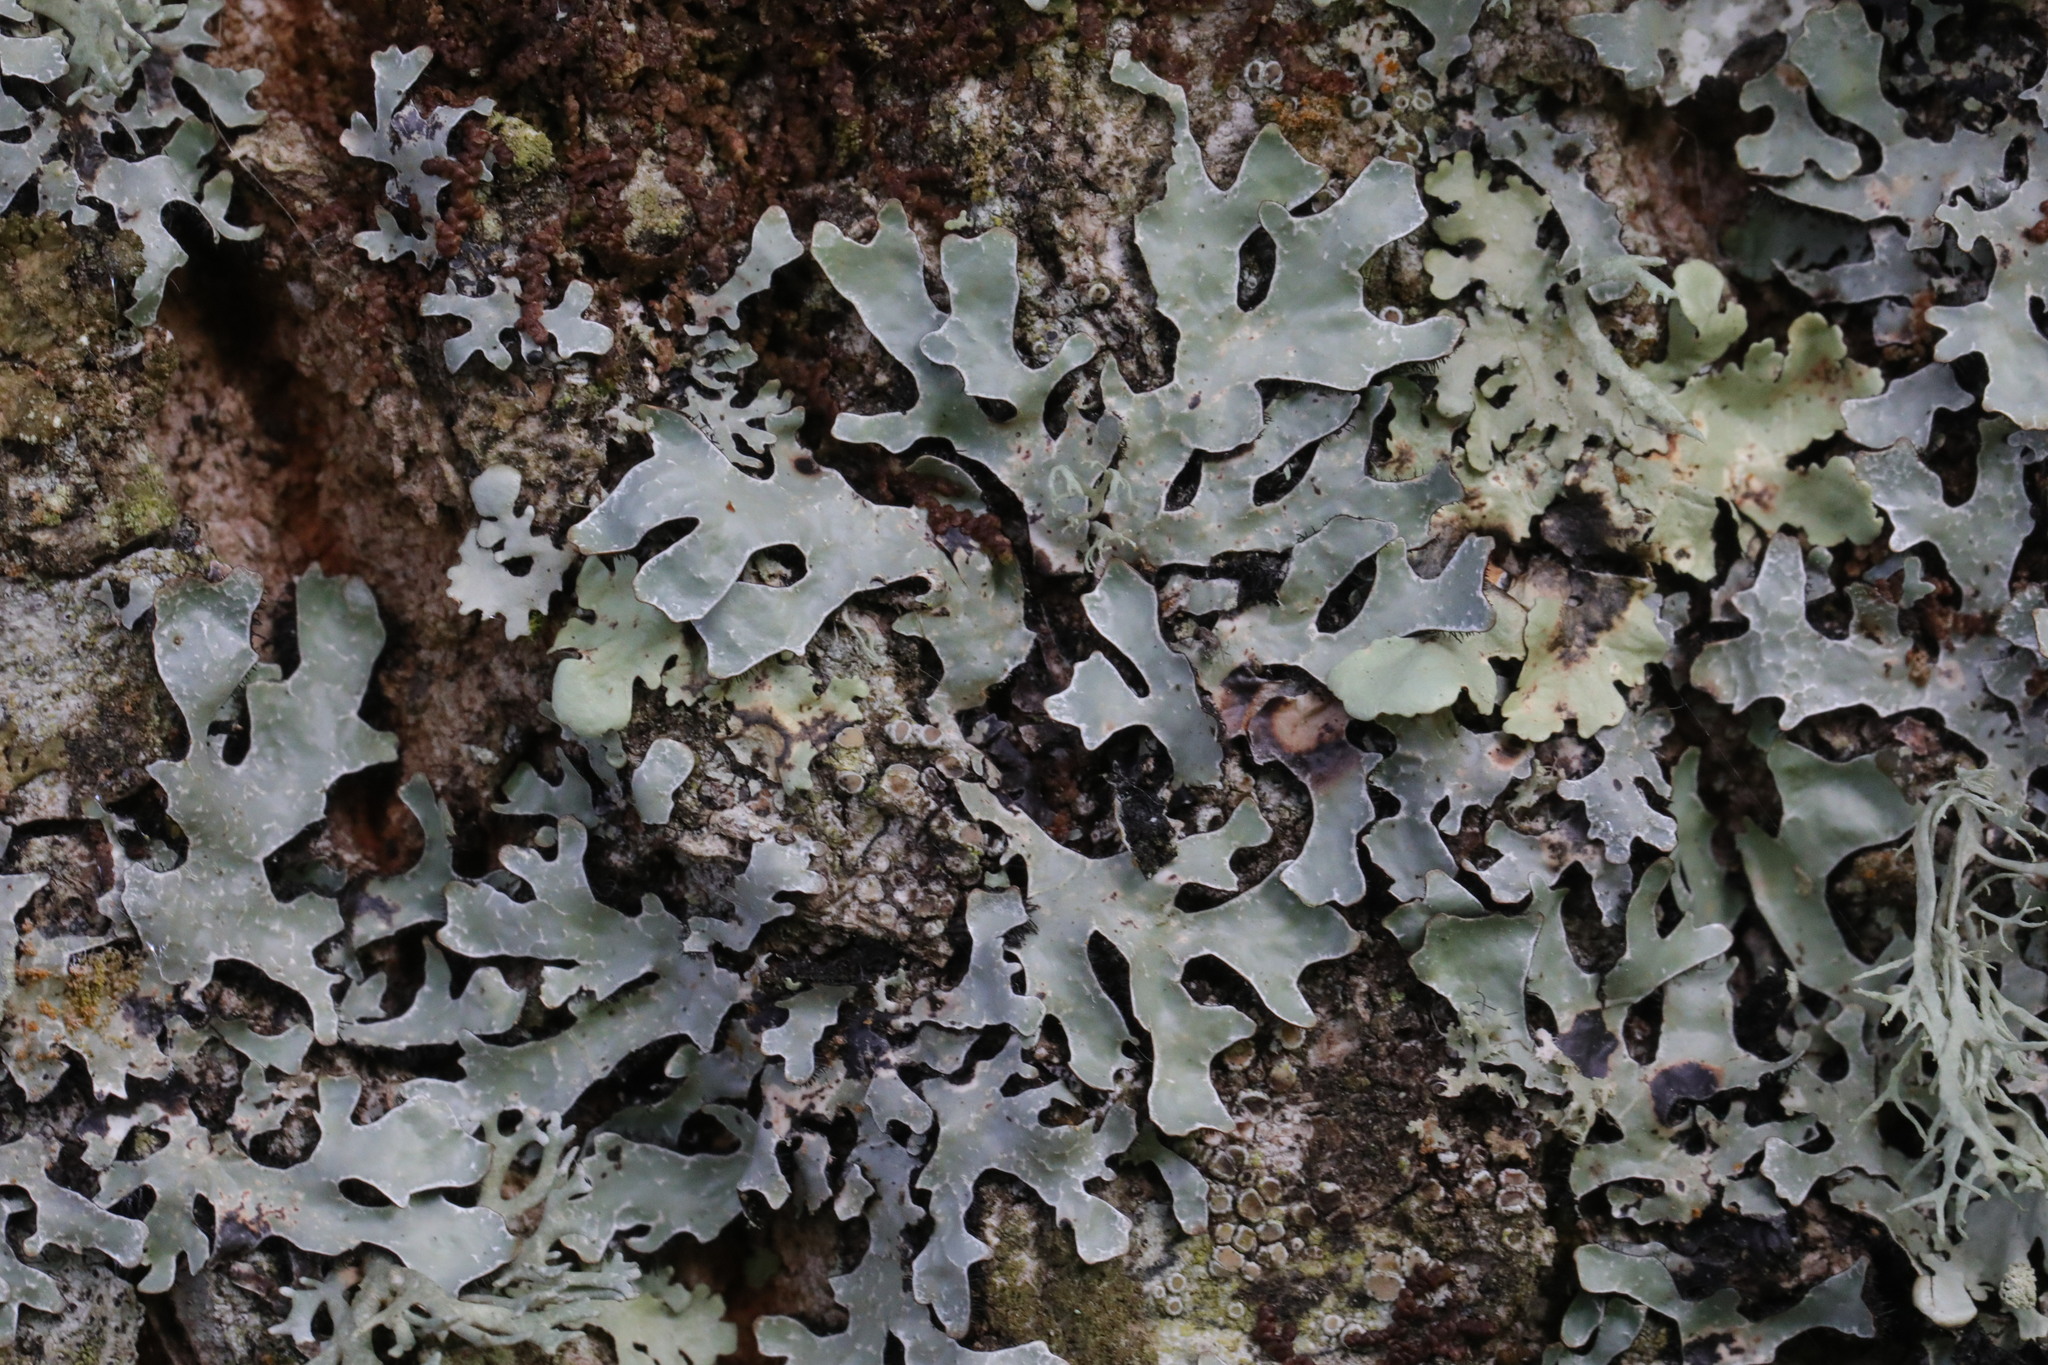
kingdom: Fungi
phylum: Ascomycota
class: Lecanoromycetes
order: Lecanorales
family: Parmeliaceae
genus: Parmelia
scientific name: Parmelia sulcata
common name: Netted shield lichen
